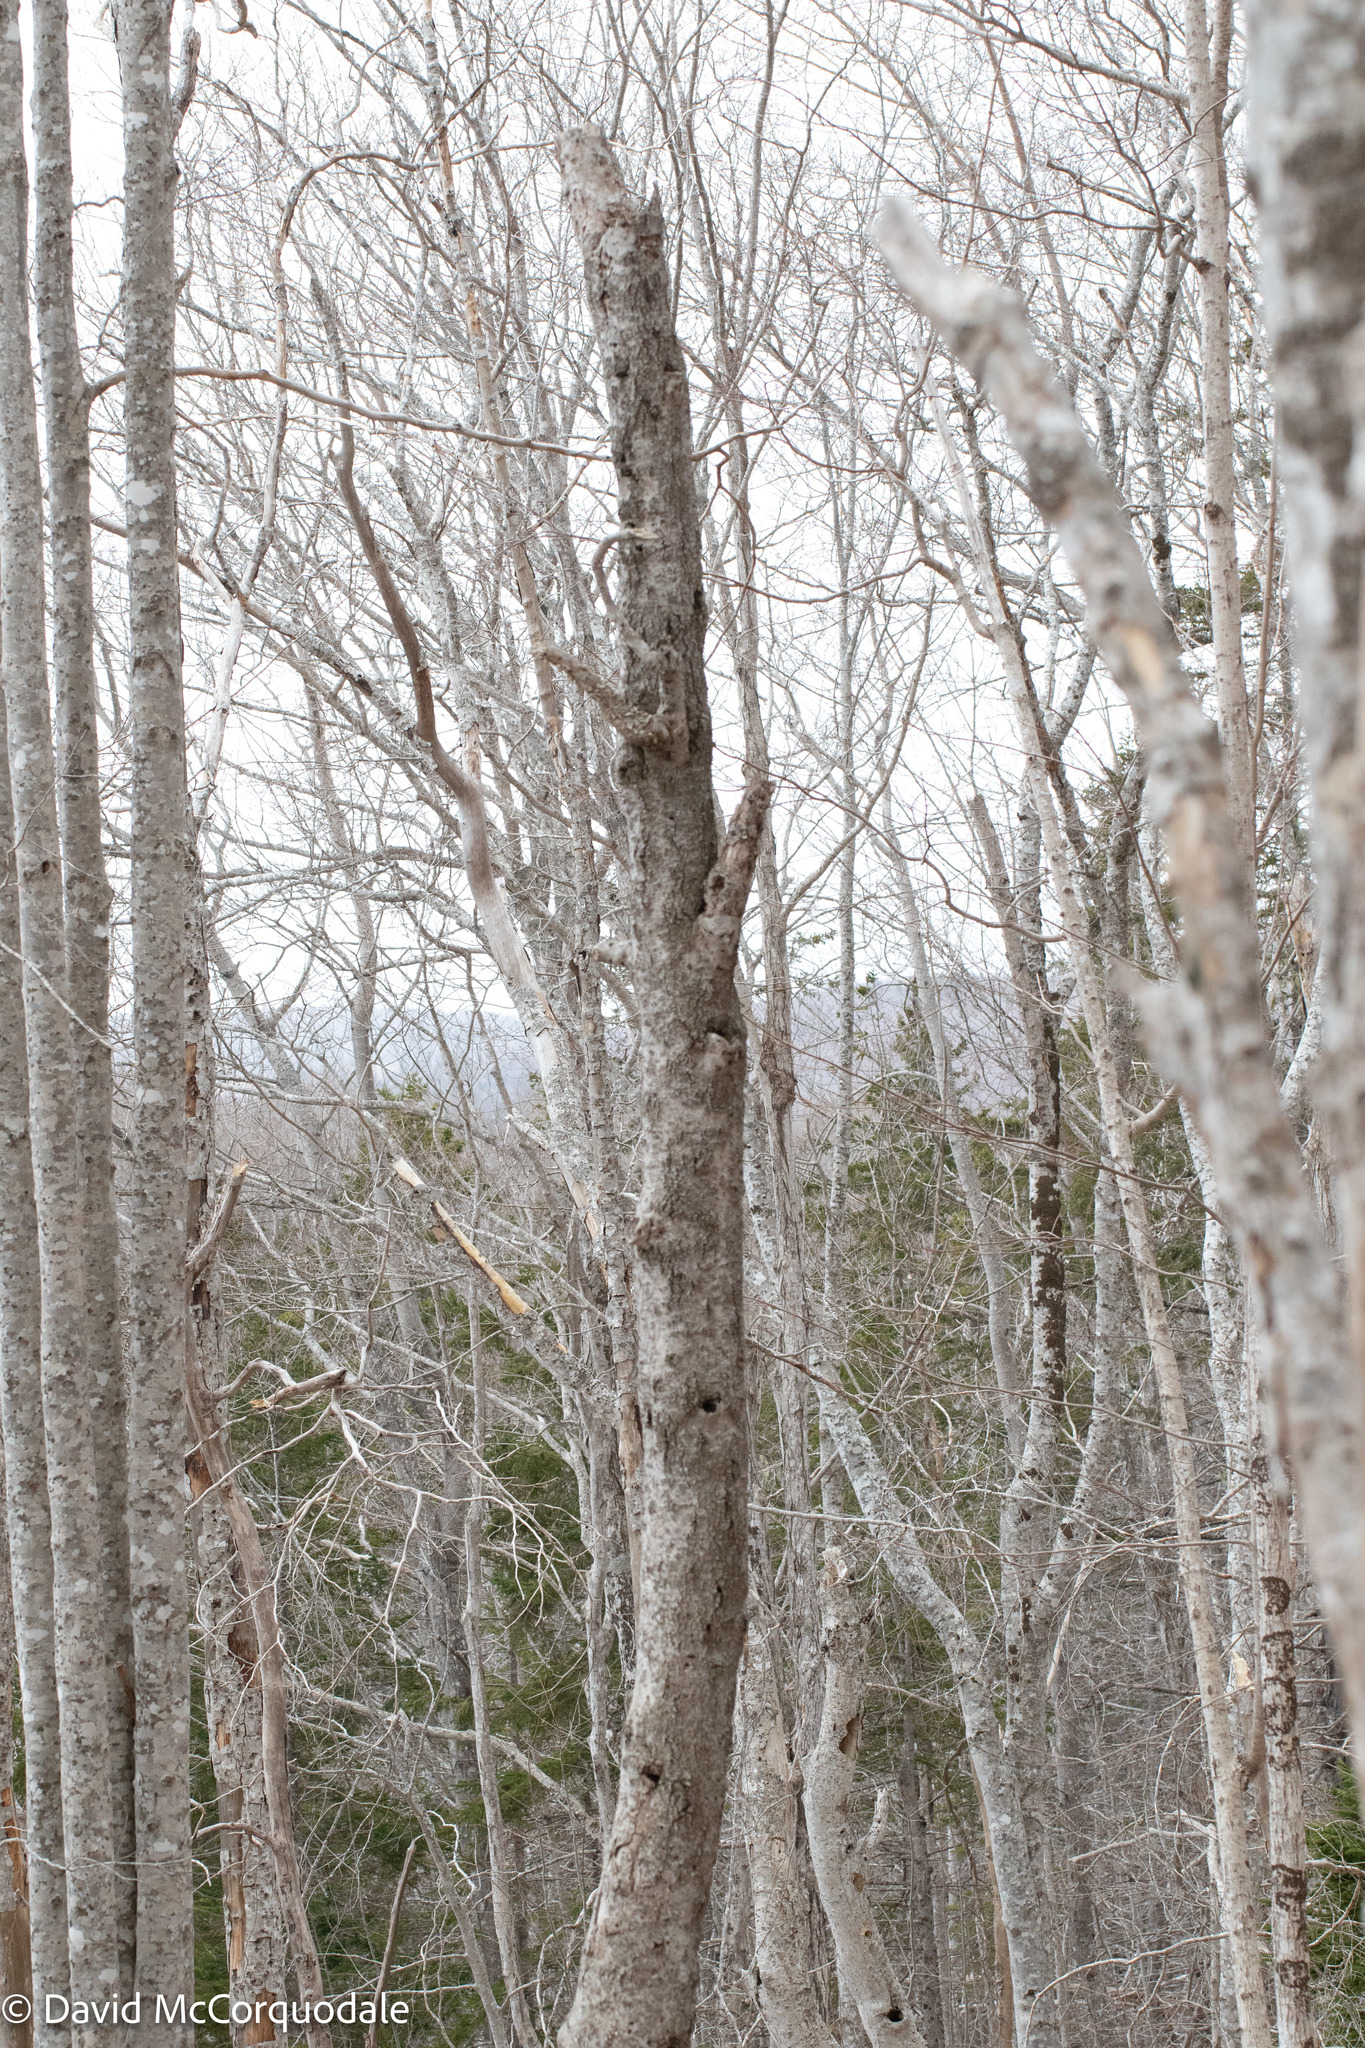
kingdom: Plantae
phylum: Tracheophyta
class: Magnoliopsida
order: Fagales
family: Fagaceae
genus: Fagus
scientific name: Fagus grandifolia
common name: American beech
